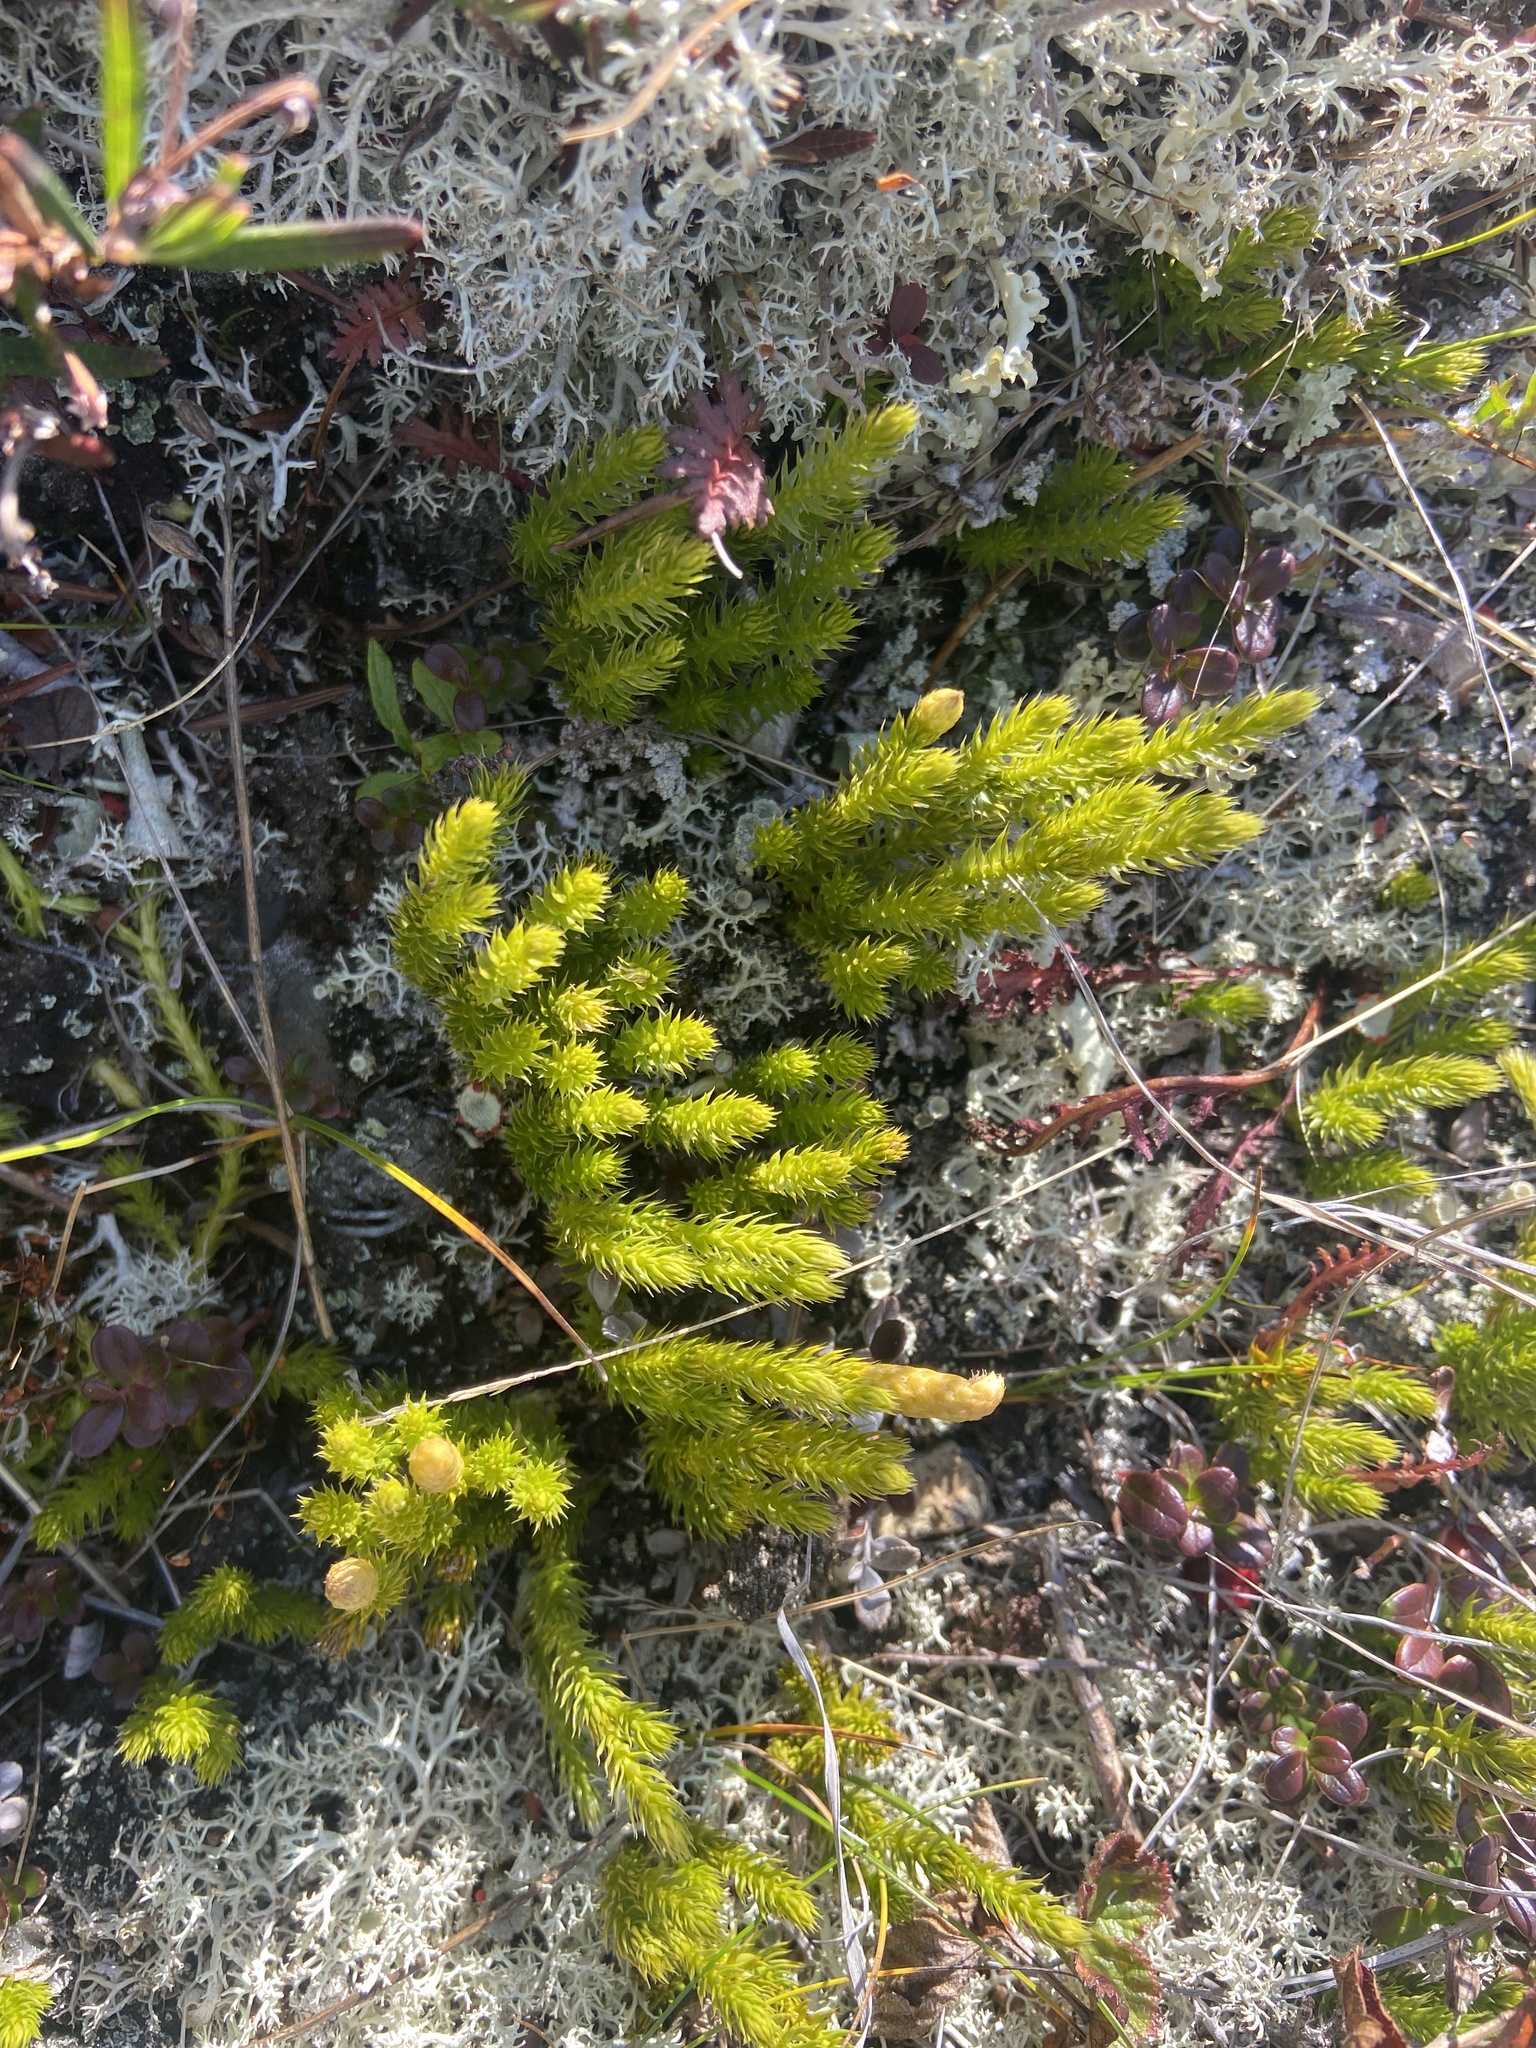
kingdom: Plantae
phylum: Tracheophyta
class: Lycopodiopsida
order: Lycopodiales
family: Lycopodiaceae
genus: Spinulum
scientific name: Spinulum annotinum
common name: Interrupted club-moss
